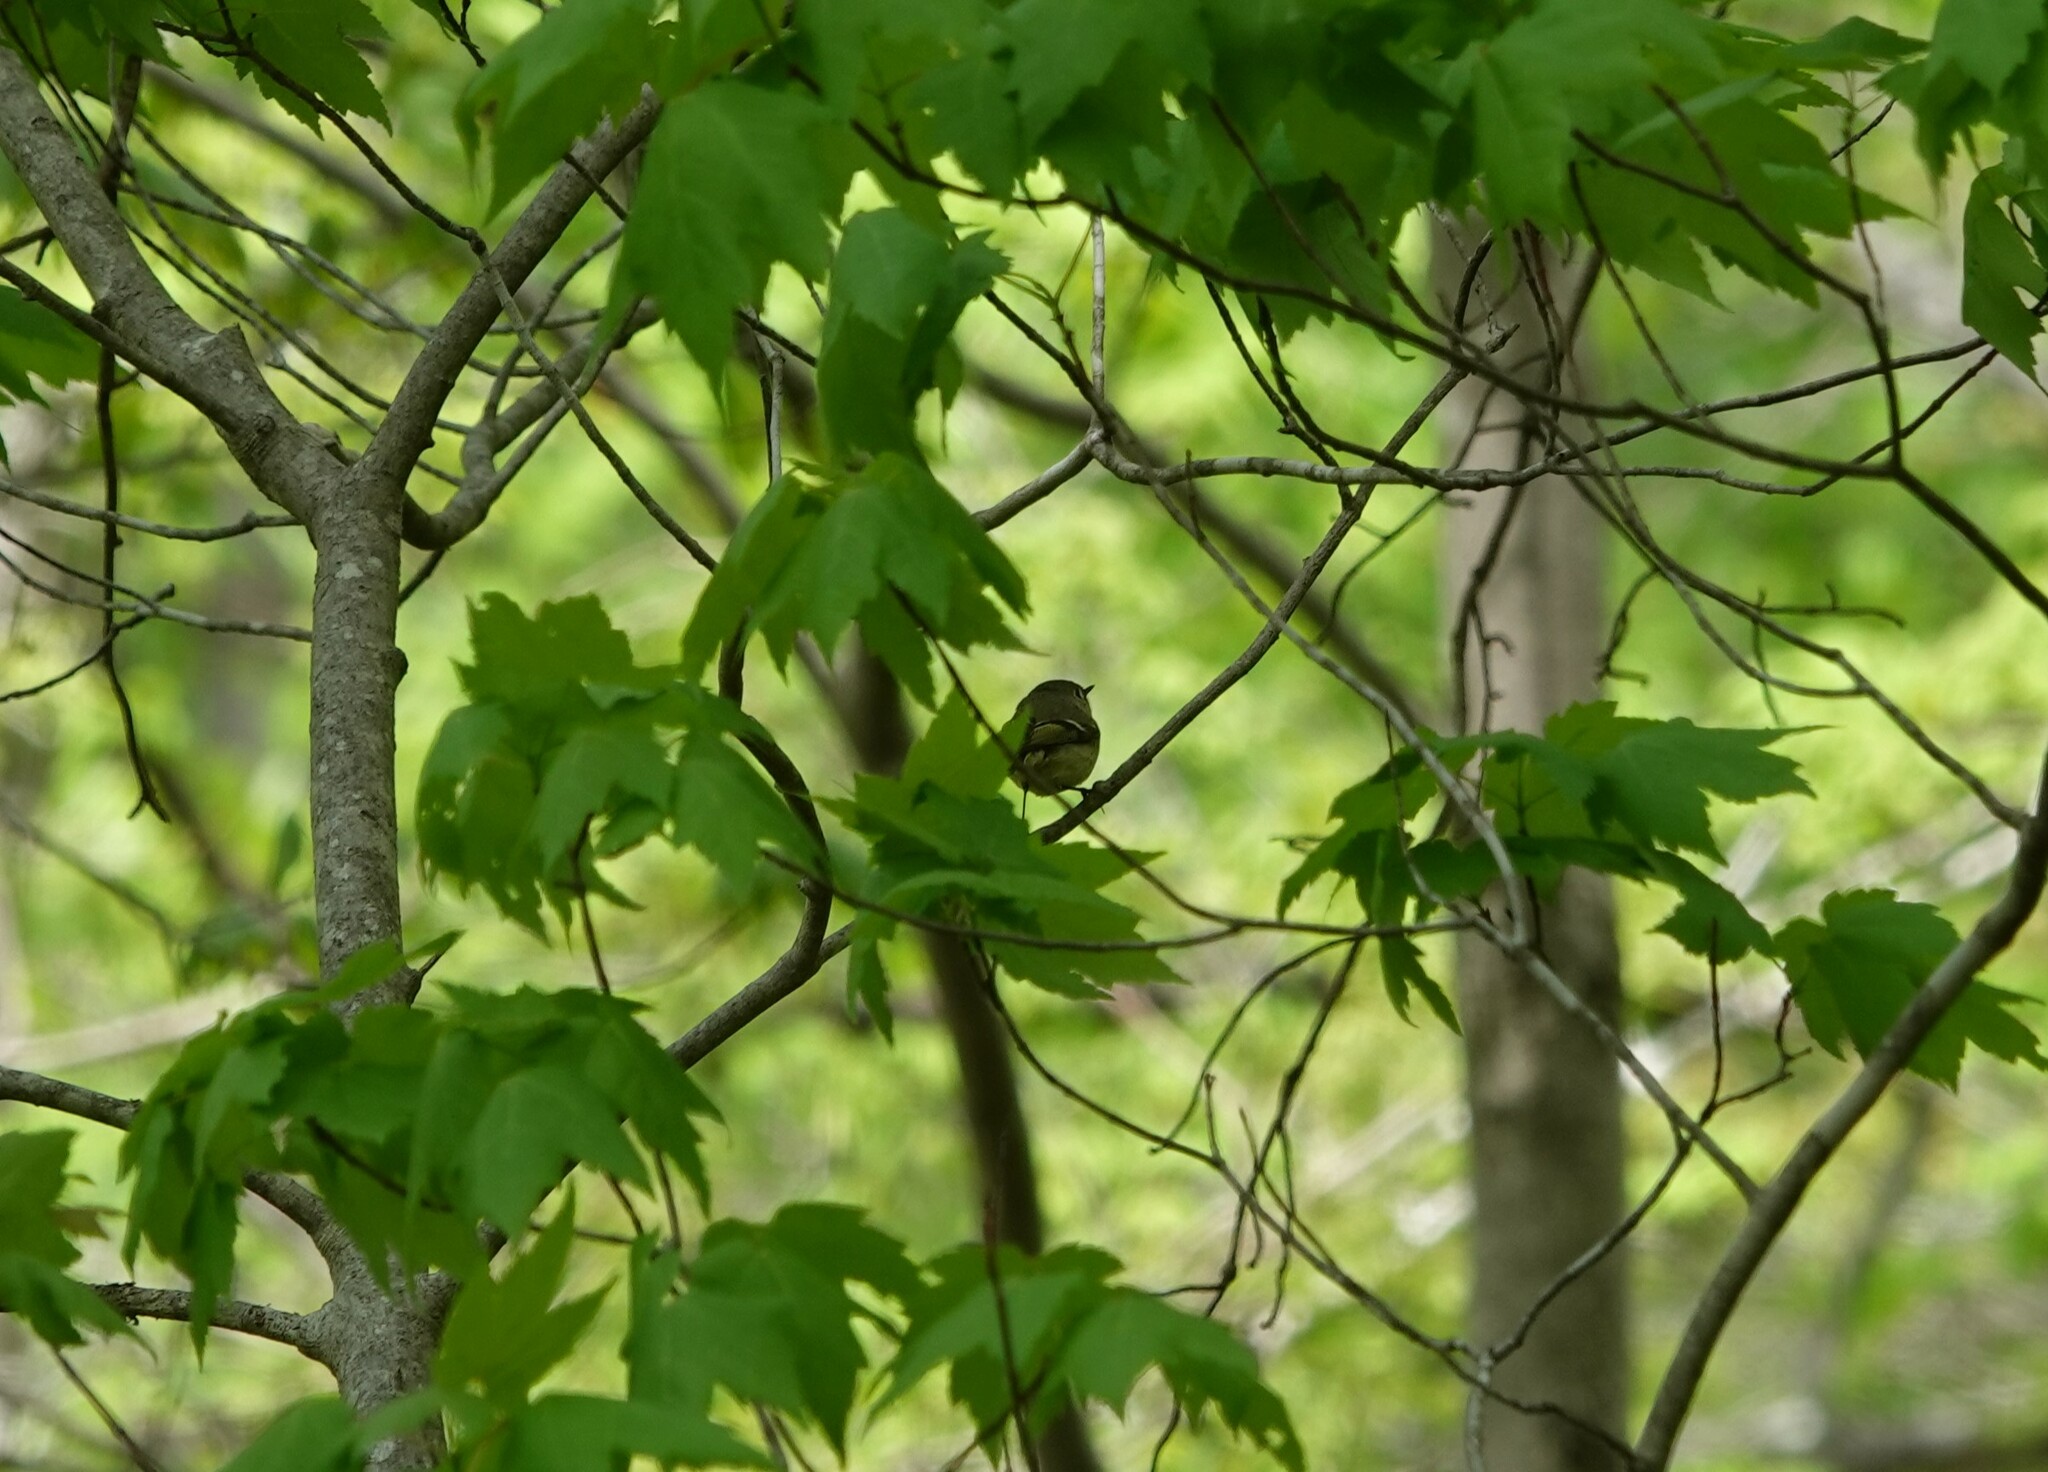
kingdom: Animalia
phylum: Chordata
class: Aves
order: Passeriformes
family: Regulidae
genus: Regulus
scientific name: Regulus calendula
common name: Ruby-crowned kinglet
